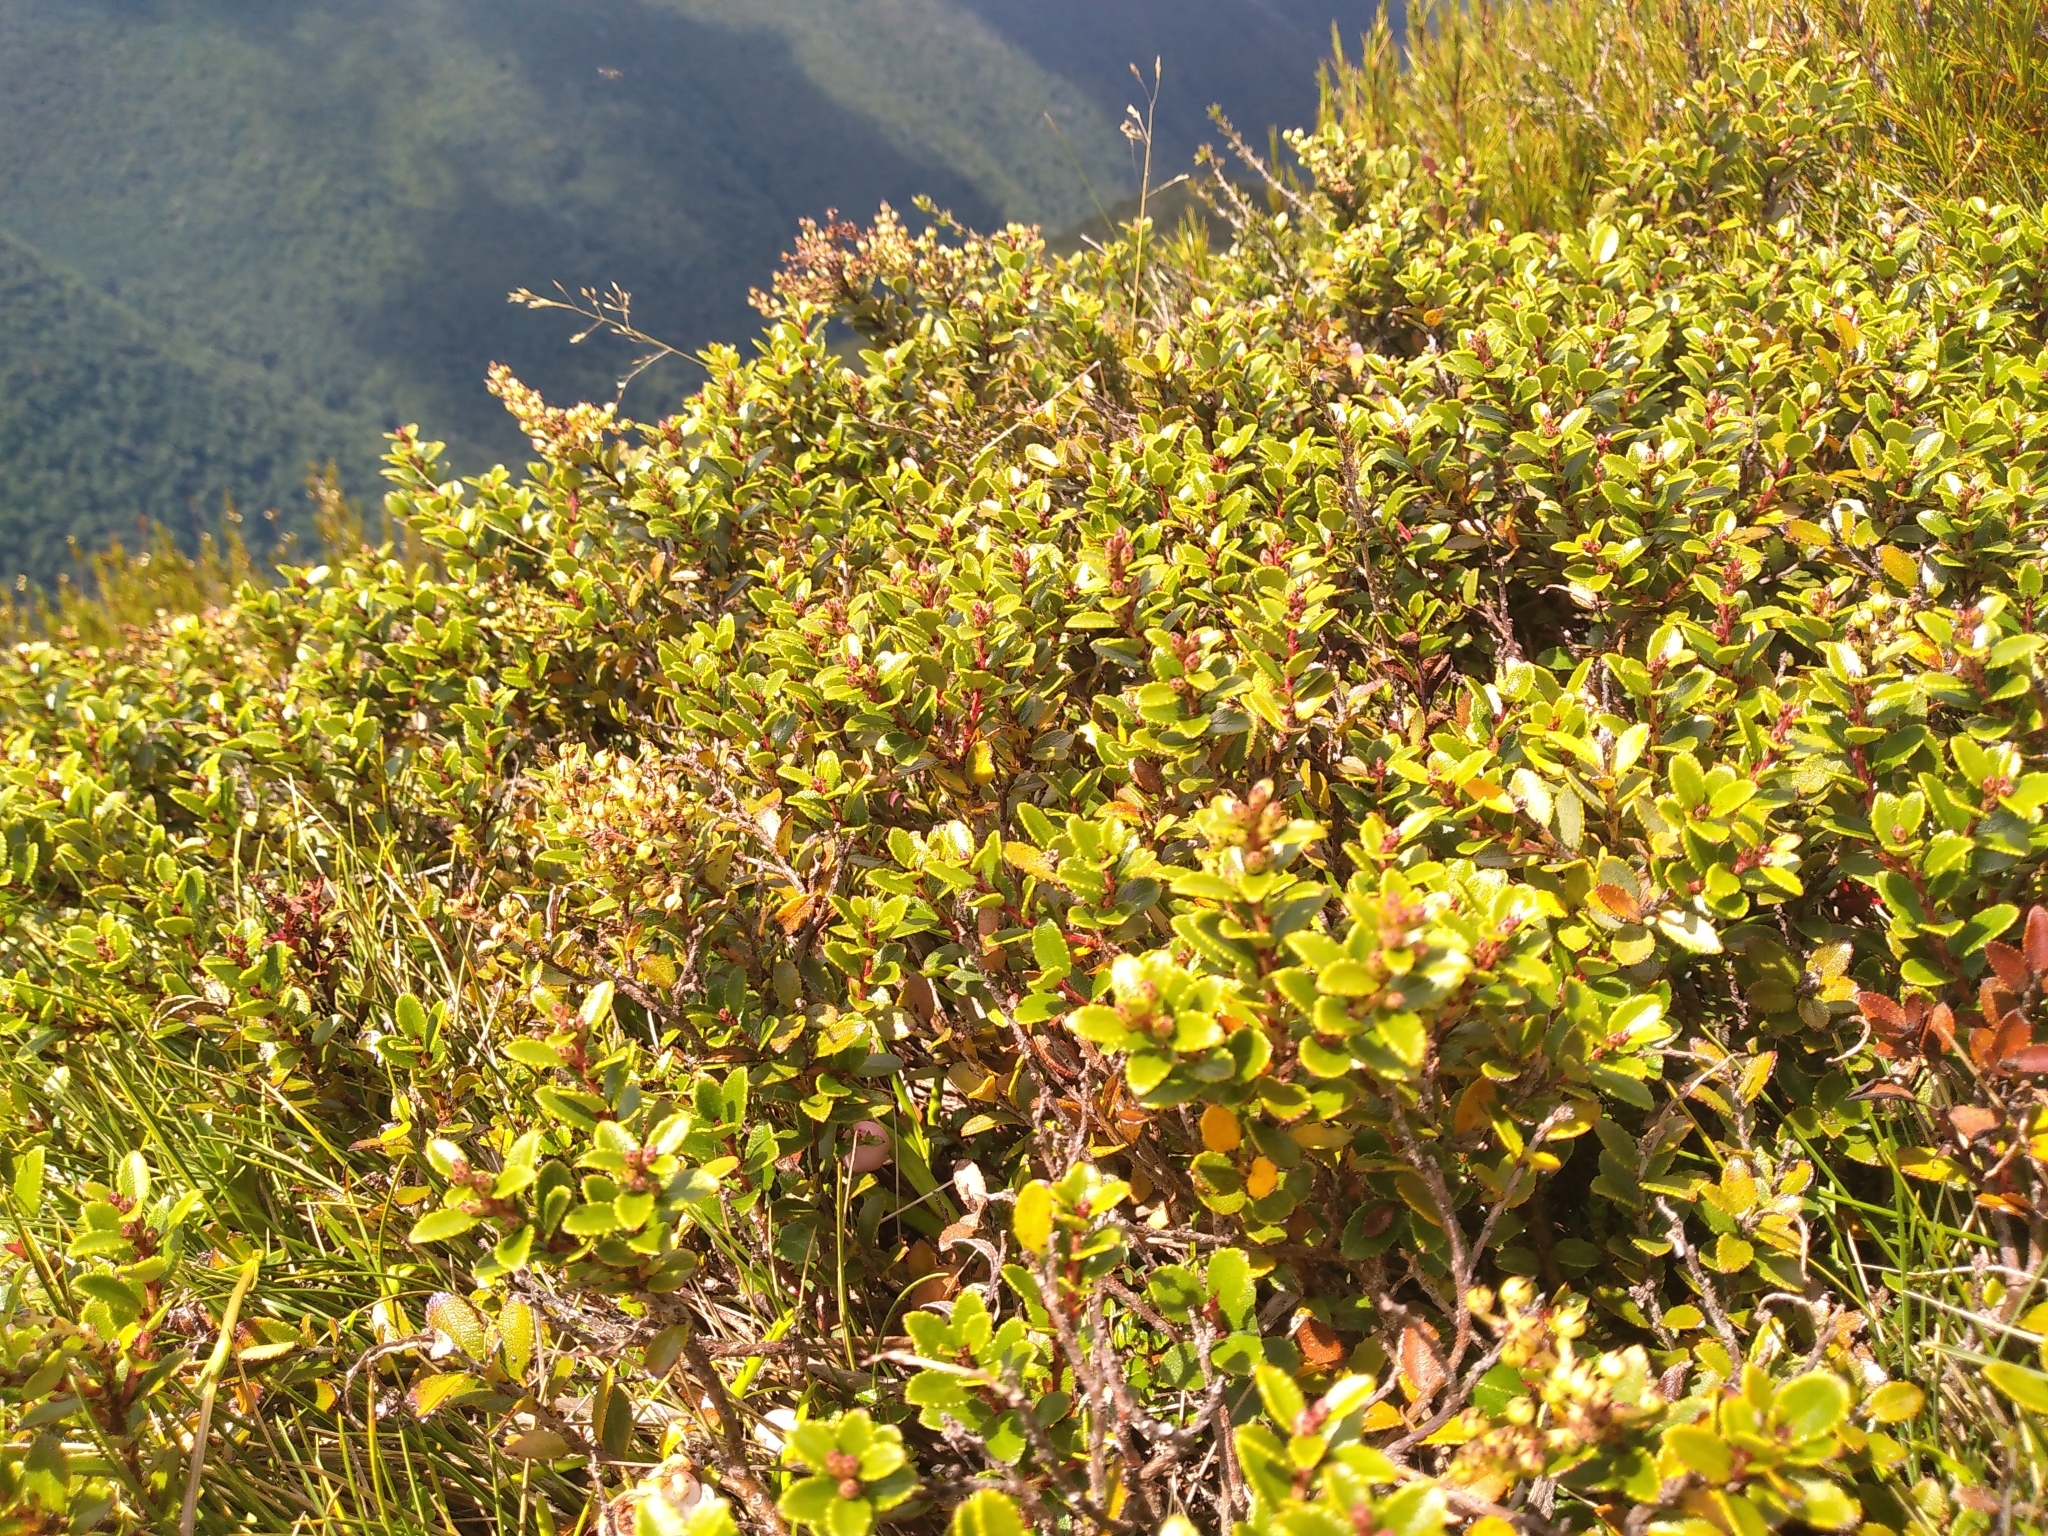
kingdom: Plantae
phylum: Tracheophyta
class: Magnoliopsida
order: Ericales
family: Ericaceae
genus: Gaultheria
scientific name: Gaultheria crassa
